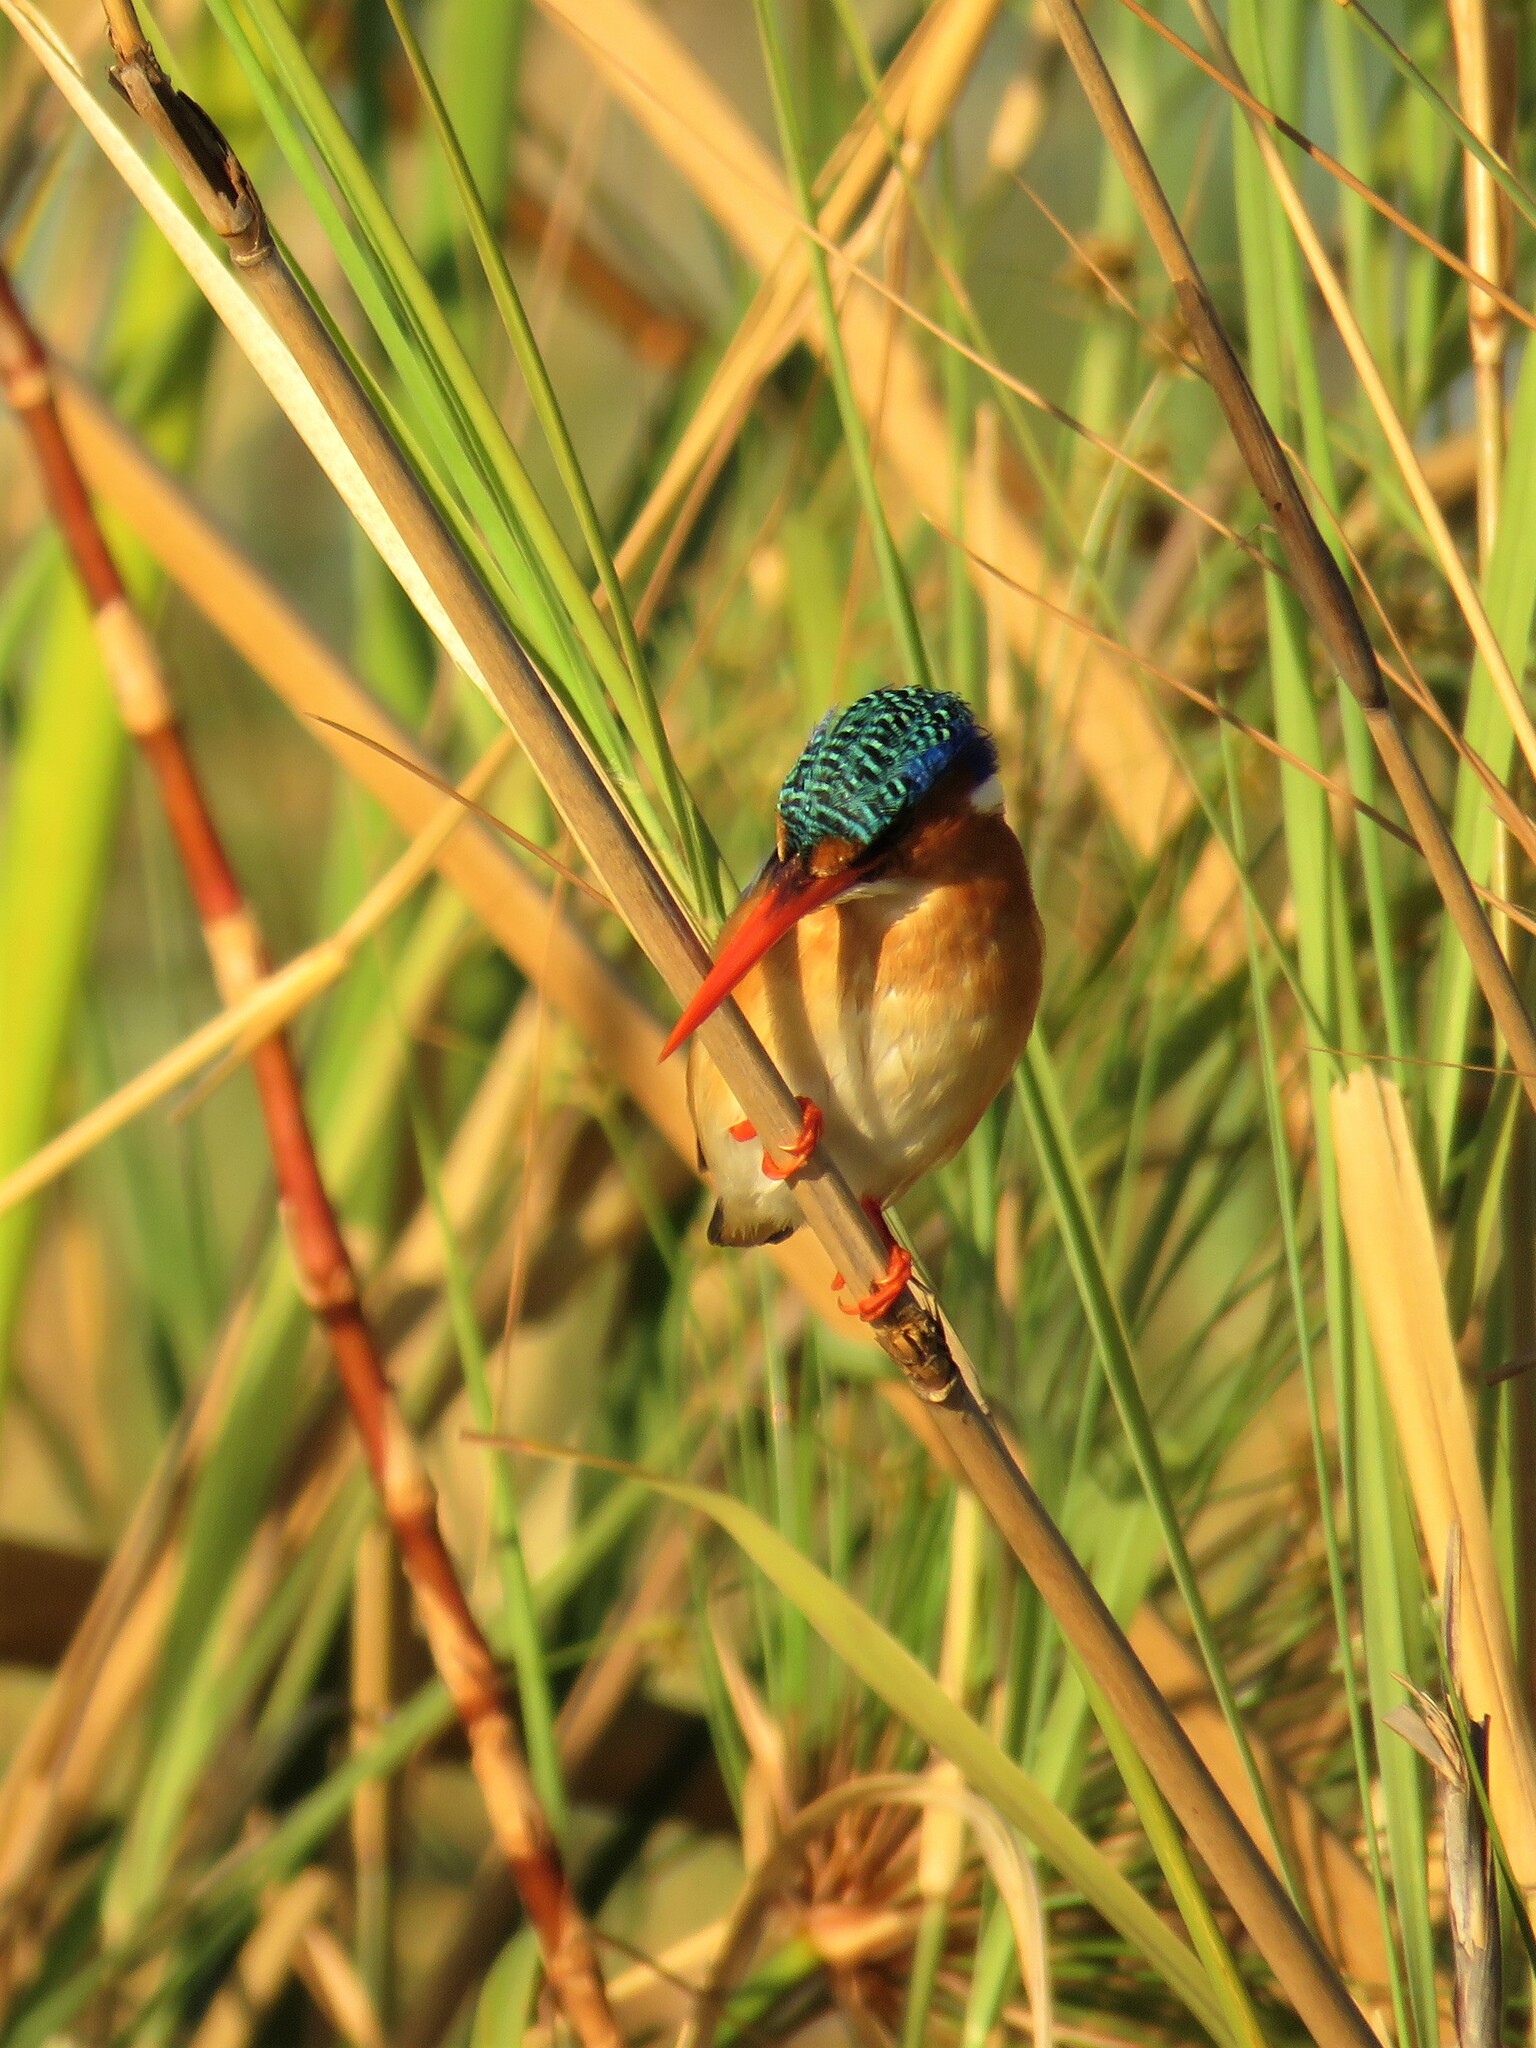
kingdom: Animalia
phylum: Chordata
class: Aves
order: Coraciiformes
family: Alcedinidae
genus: Corythornis
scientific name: Corythornis cristatus
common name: Malachite kingfisher
